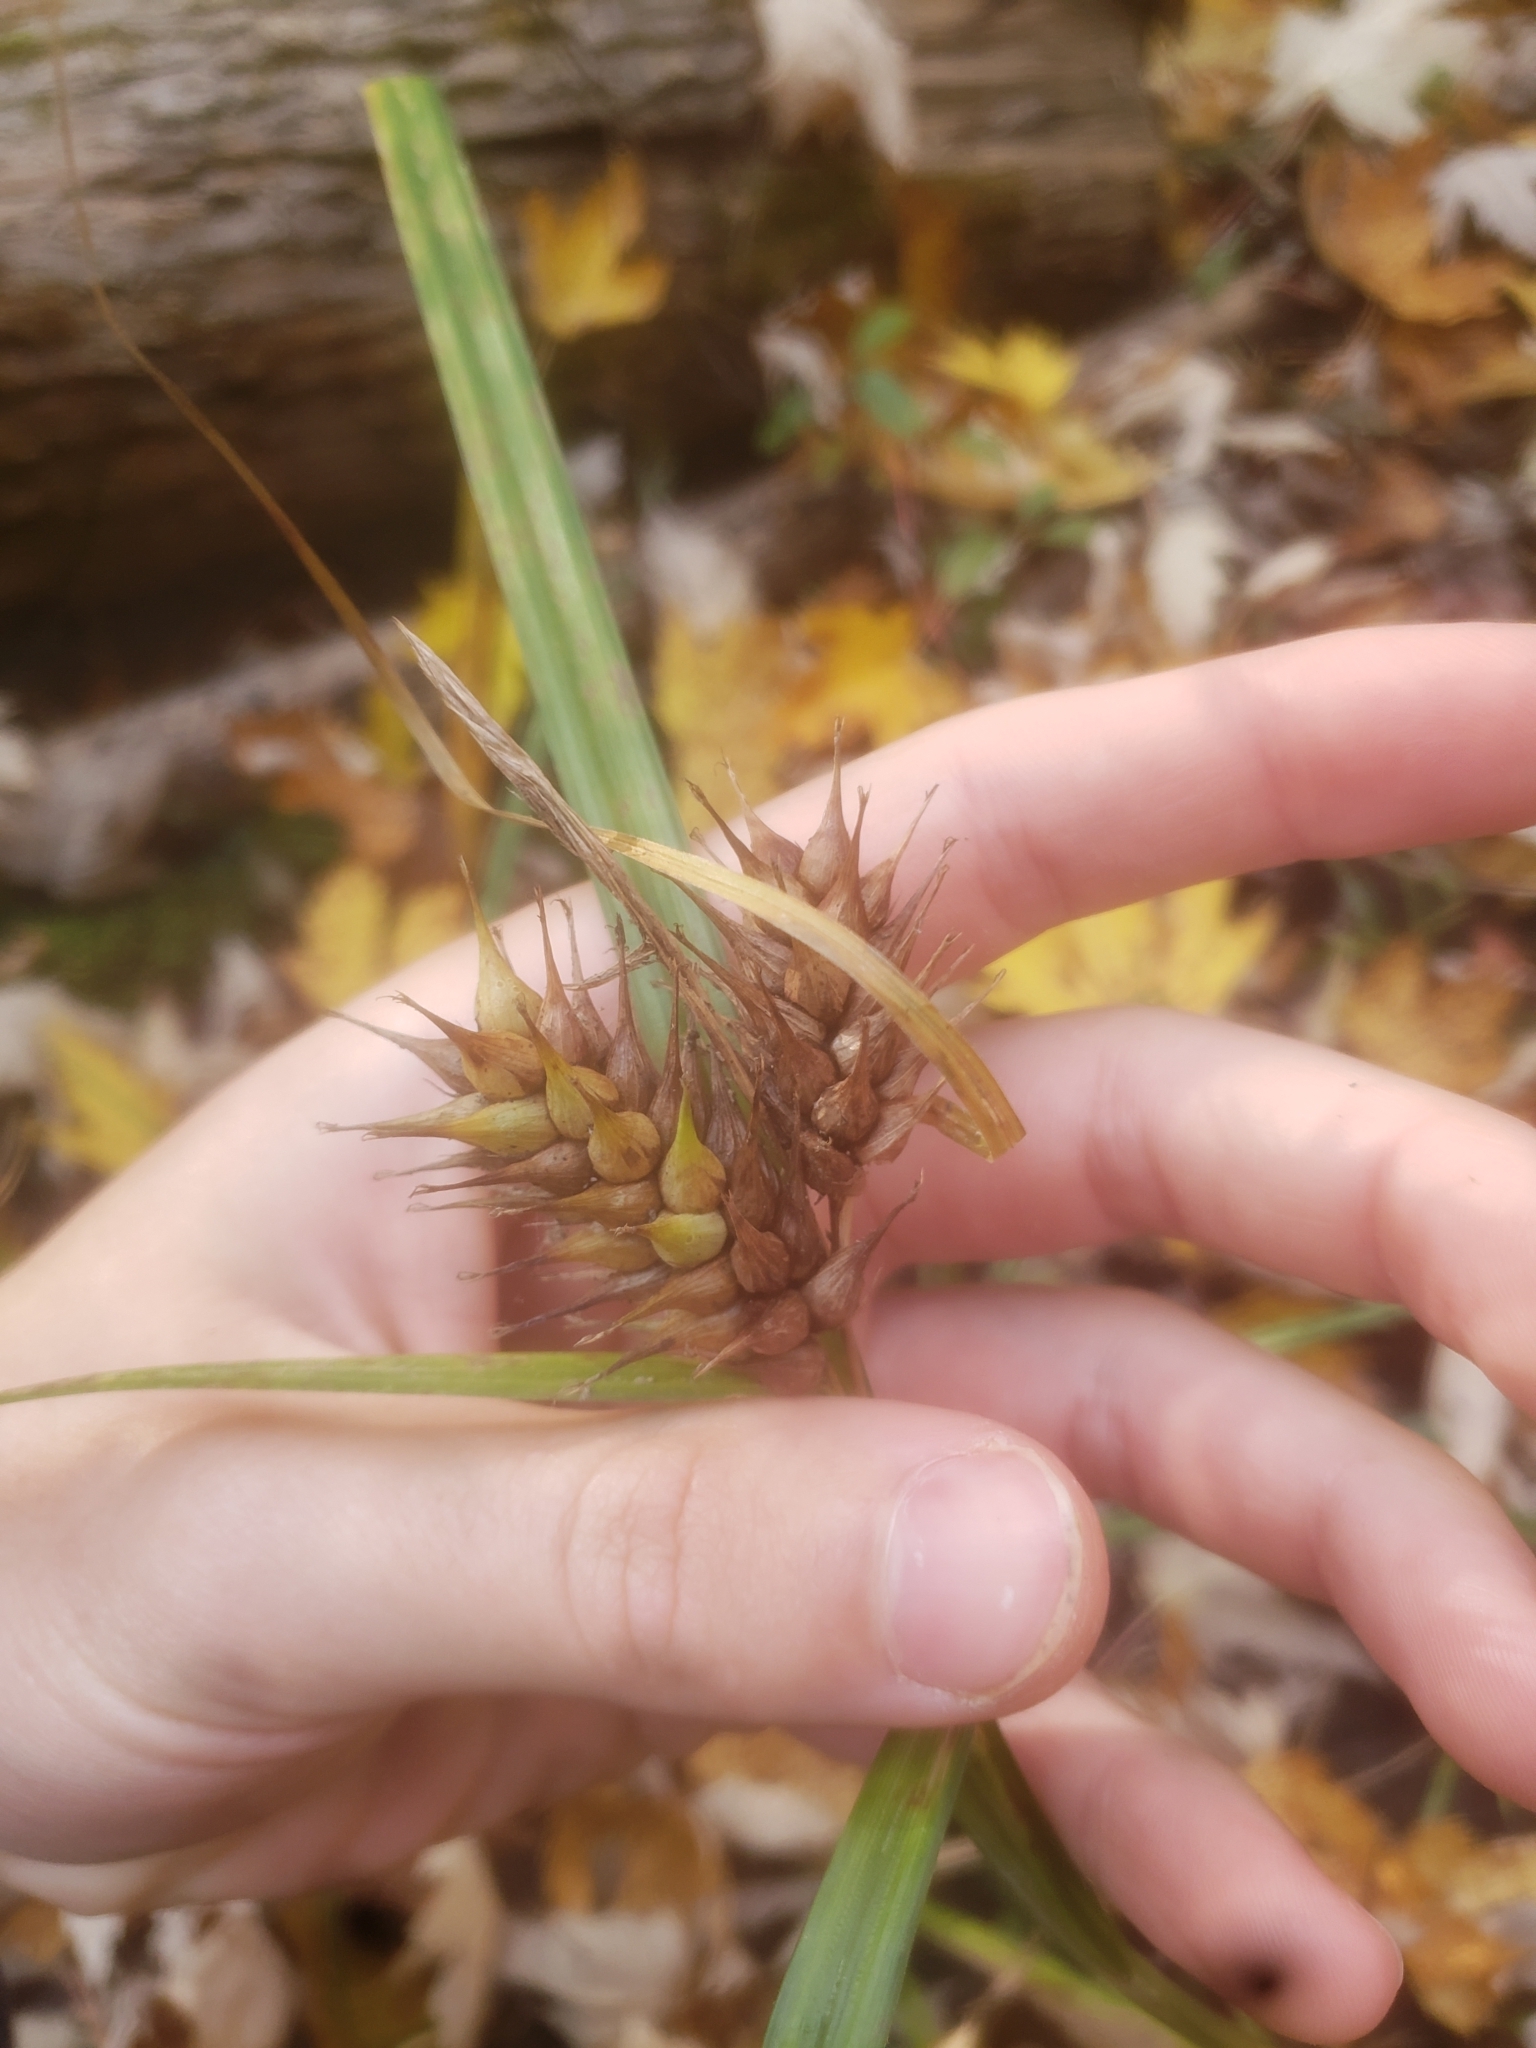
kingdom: Plantae
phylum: Tracheophyta
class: Liliopsida
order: Poales
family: Cyperaceae
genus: Carex
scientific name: Carex lupulina
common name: Hop sedge
